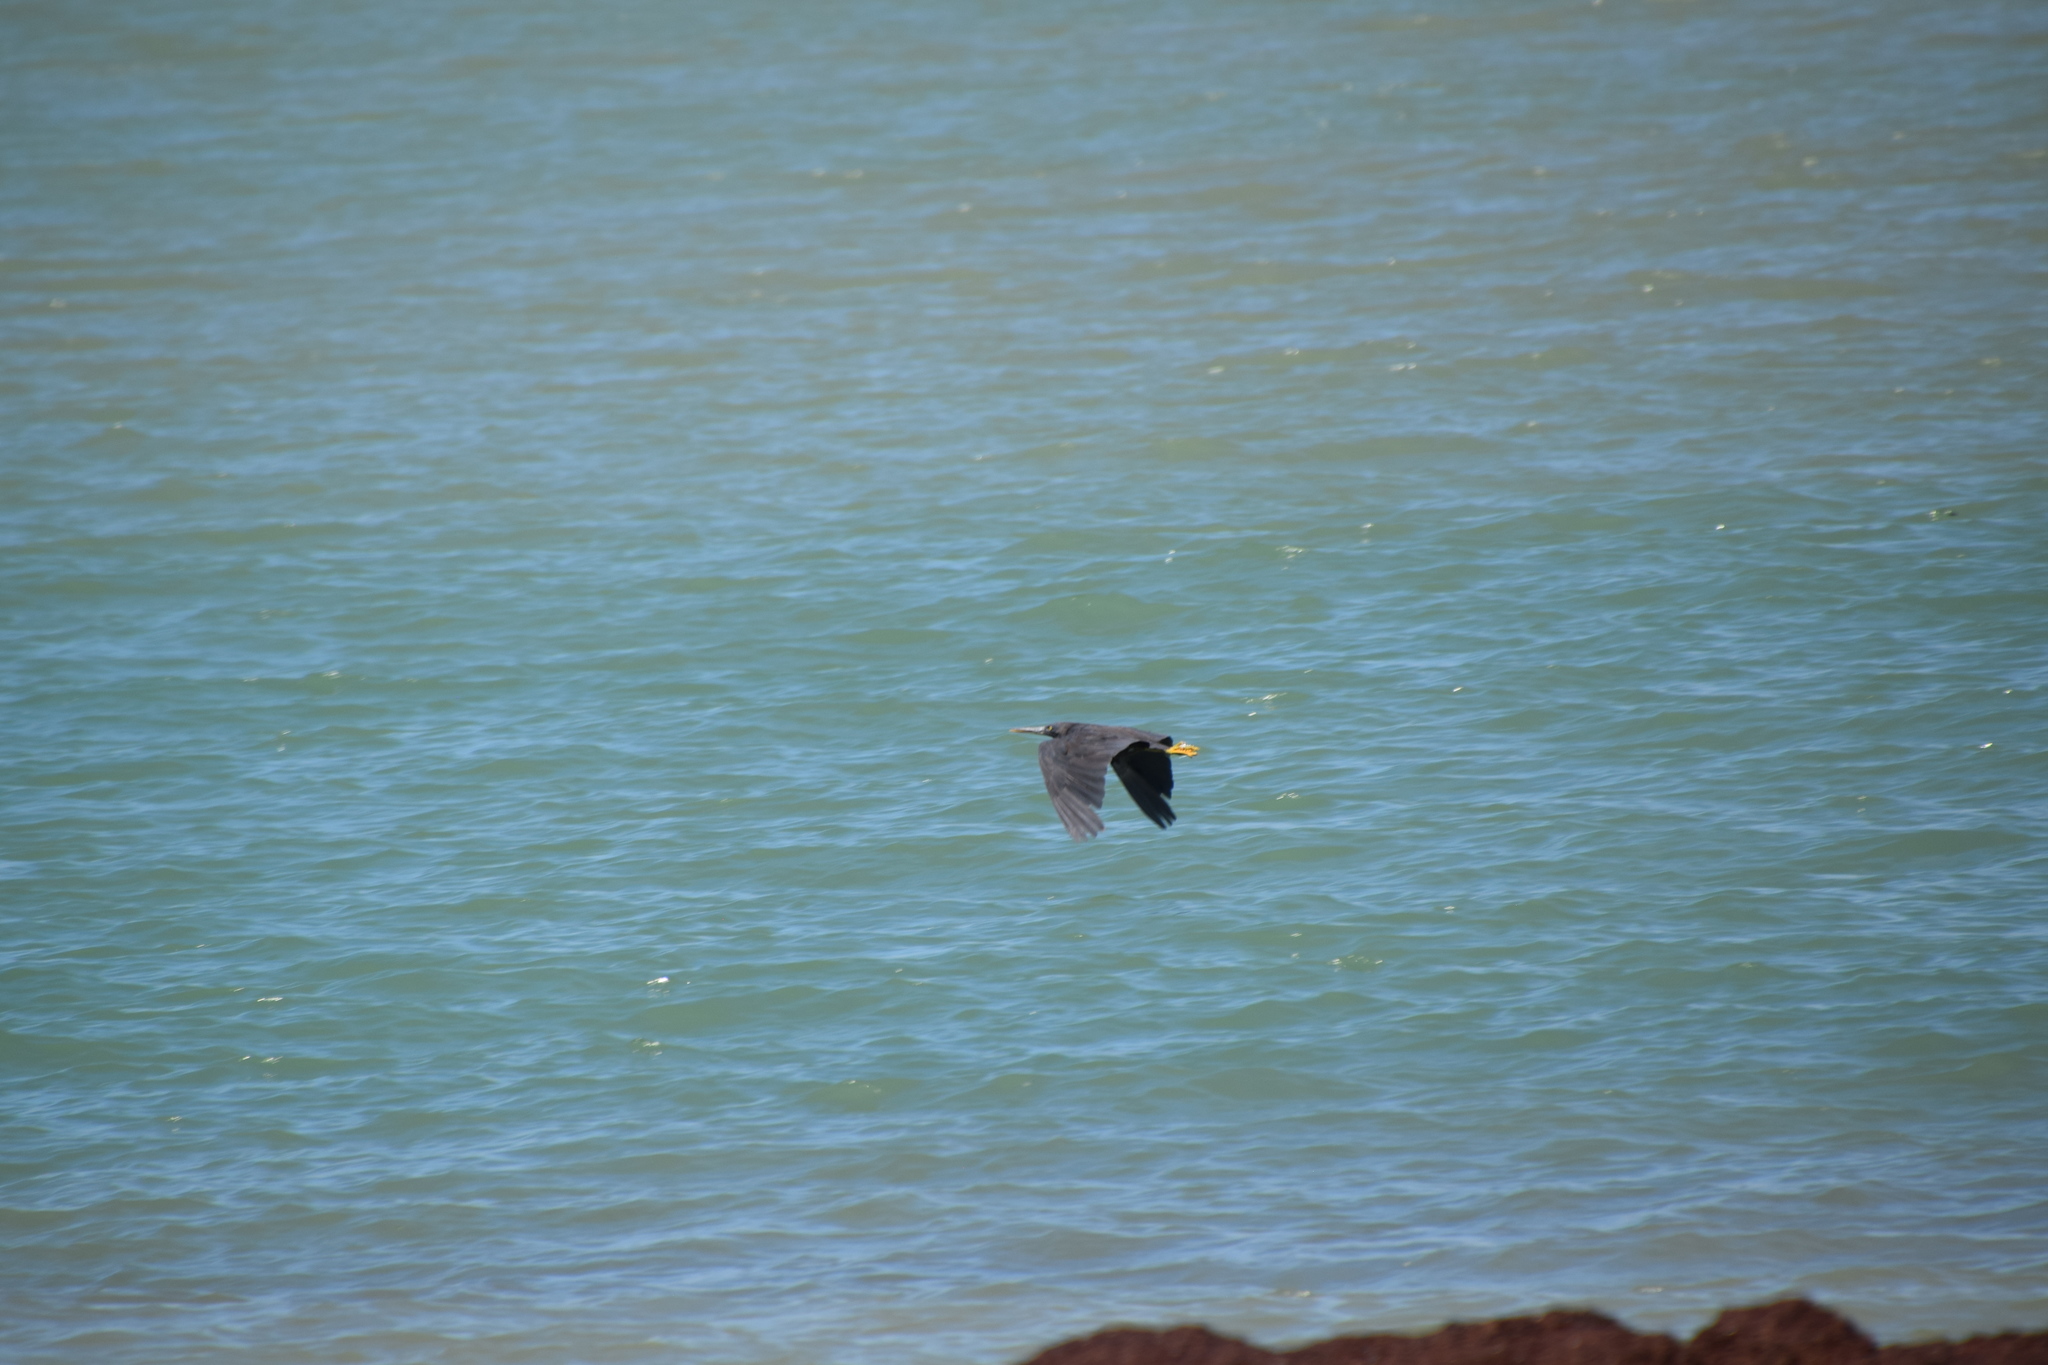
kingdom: Animalia
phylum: Chordata
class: Aves
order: Pelecaniformes
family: Ardeidae
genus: Egretta
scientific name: Egretta sacra
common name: Pacific reef heron
